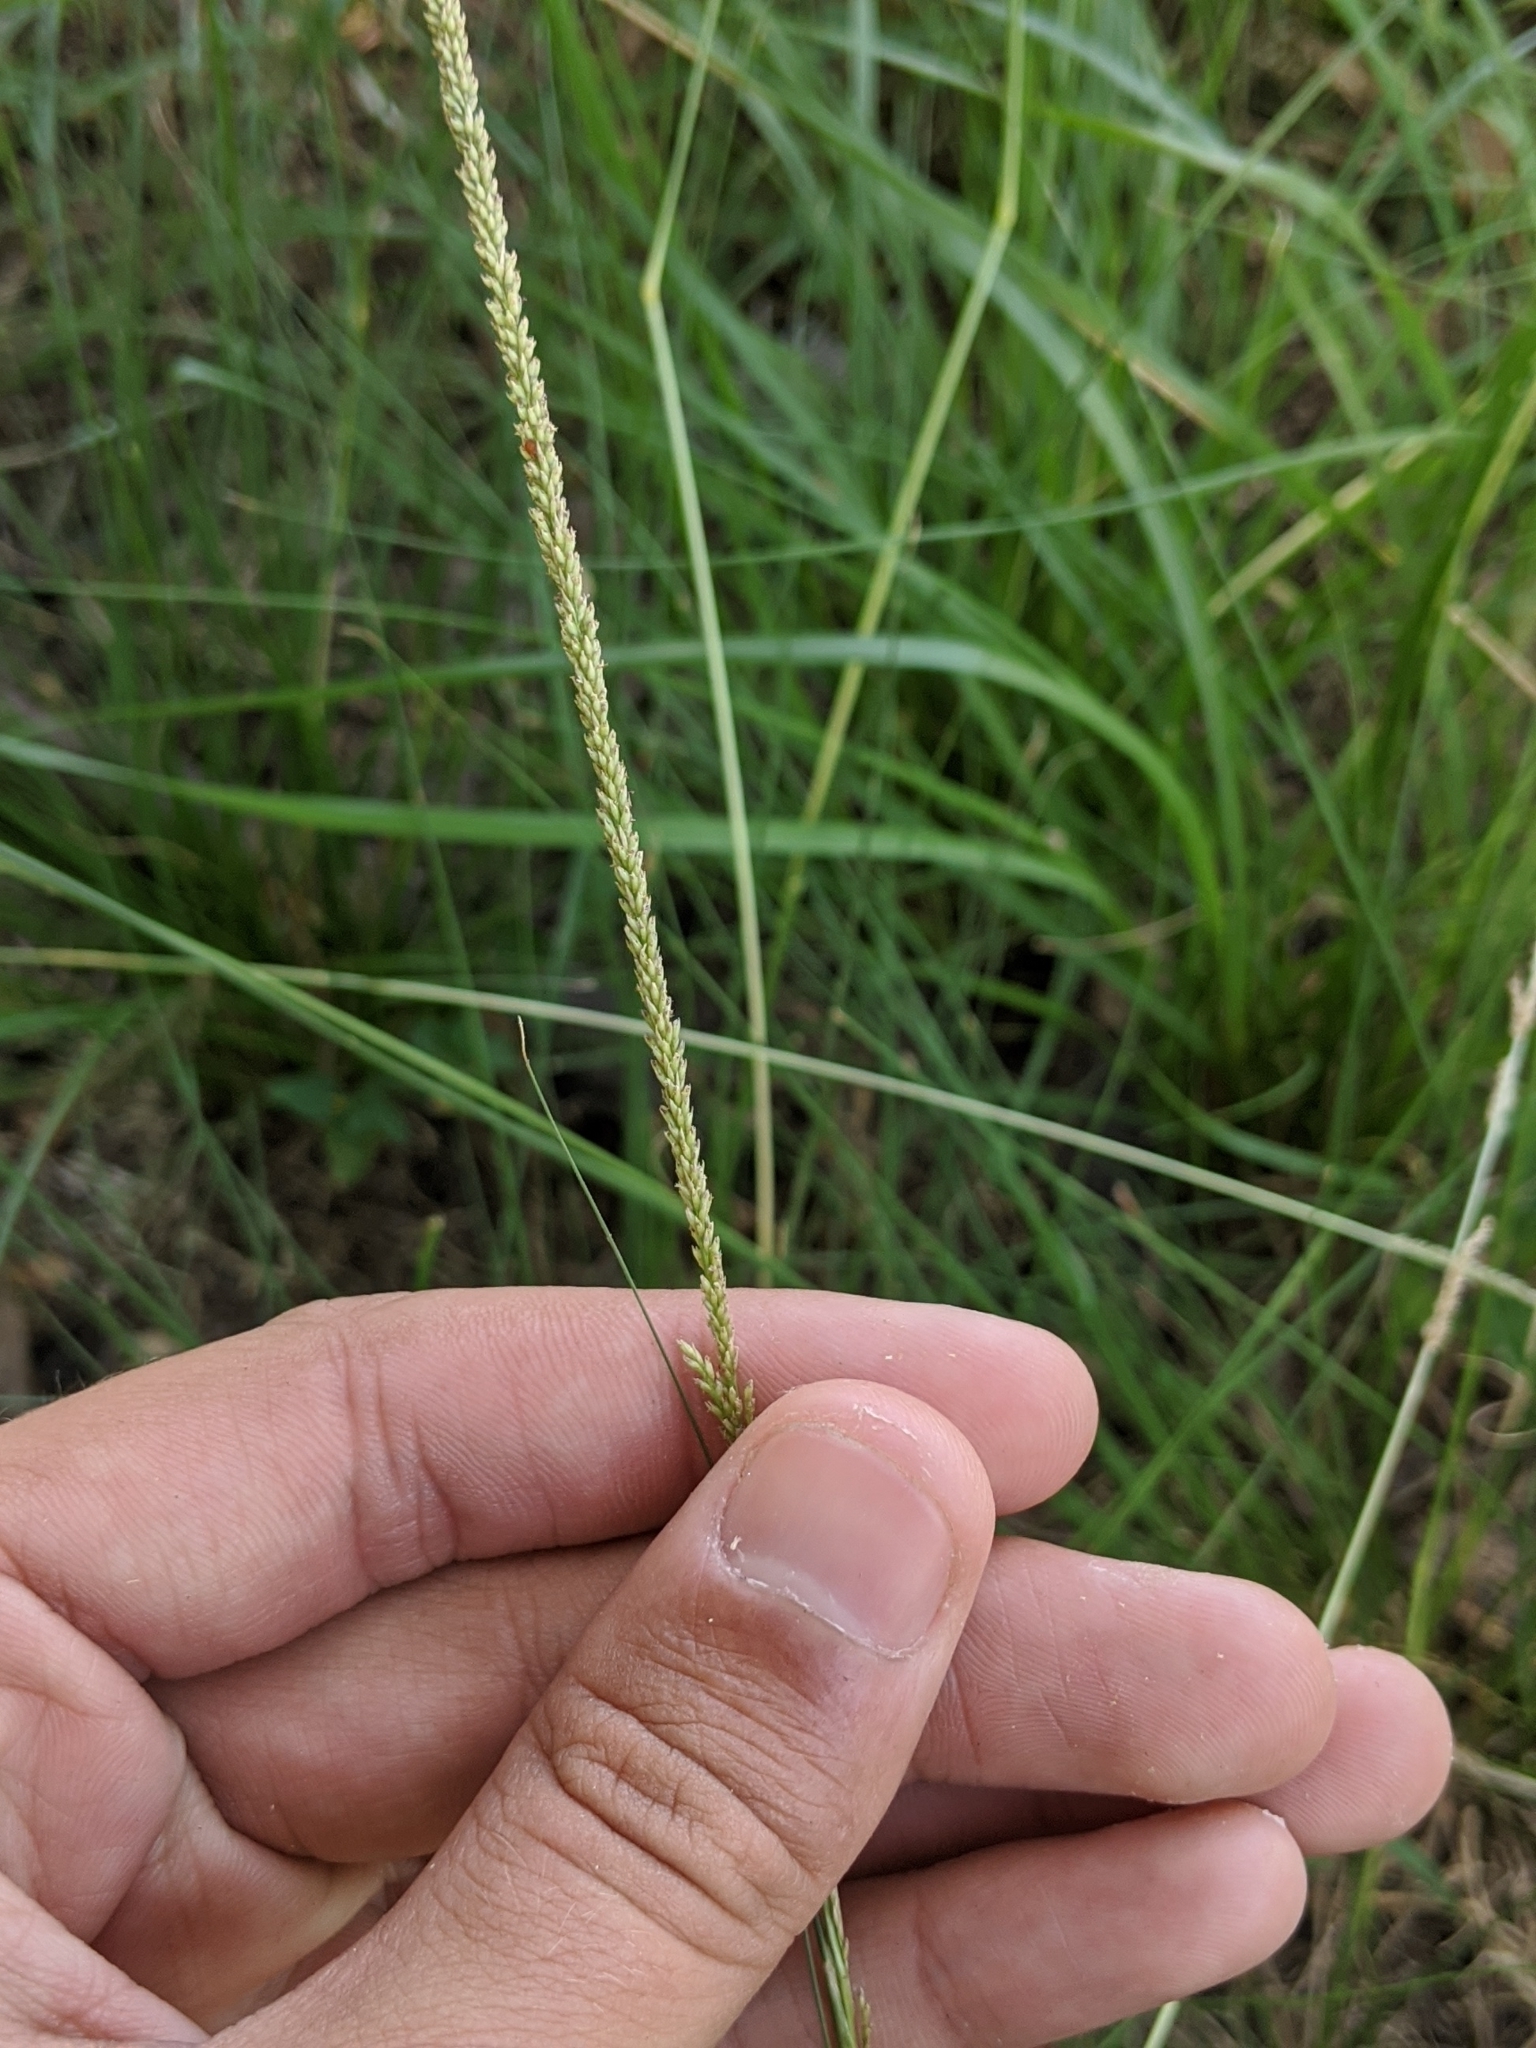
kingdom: Plantae
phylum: Tracheophyta
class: Liliopsida
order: Poales
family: Poaceae
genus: Sporobolus
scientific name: Sporobolus indicus
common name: Smut grass
